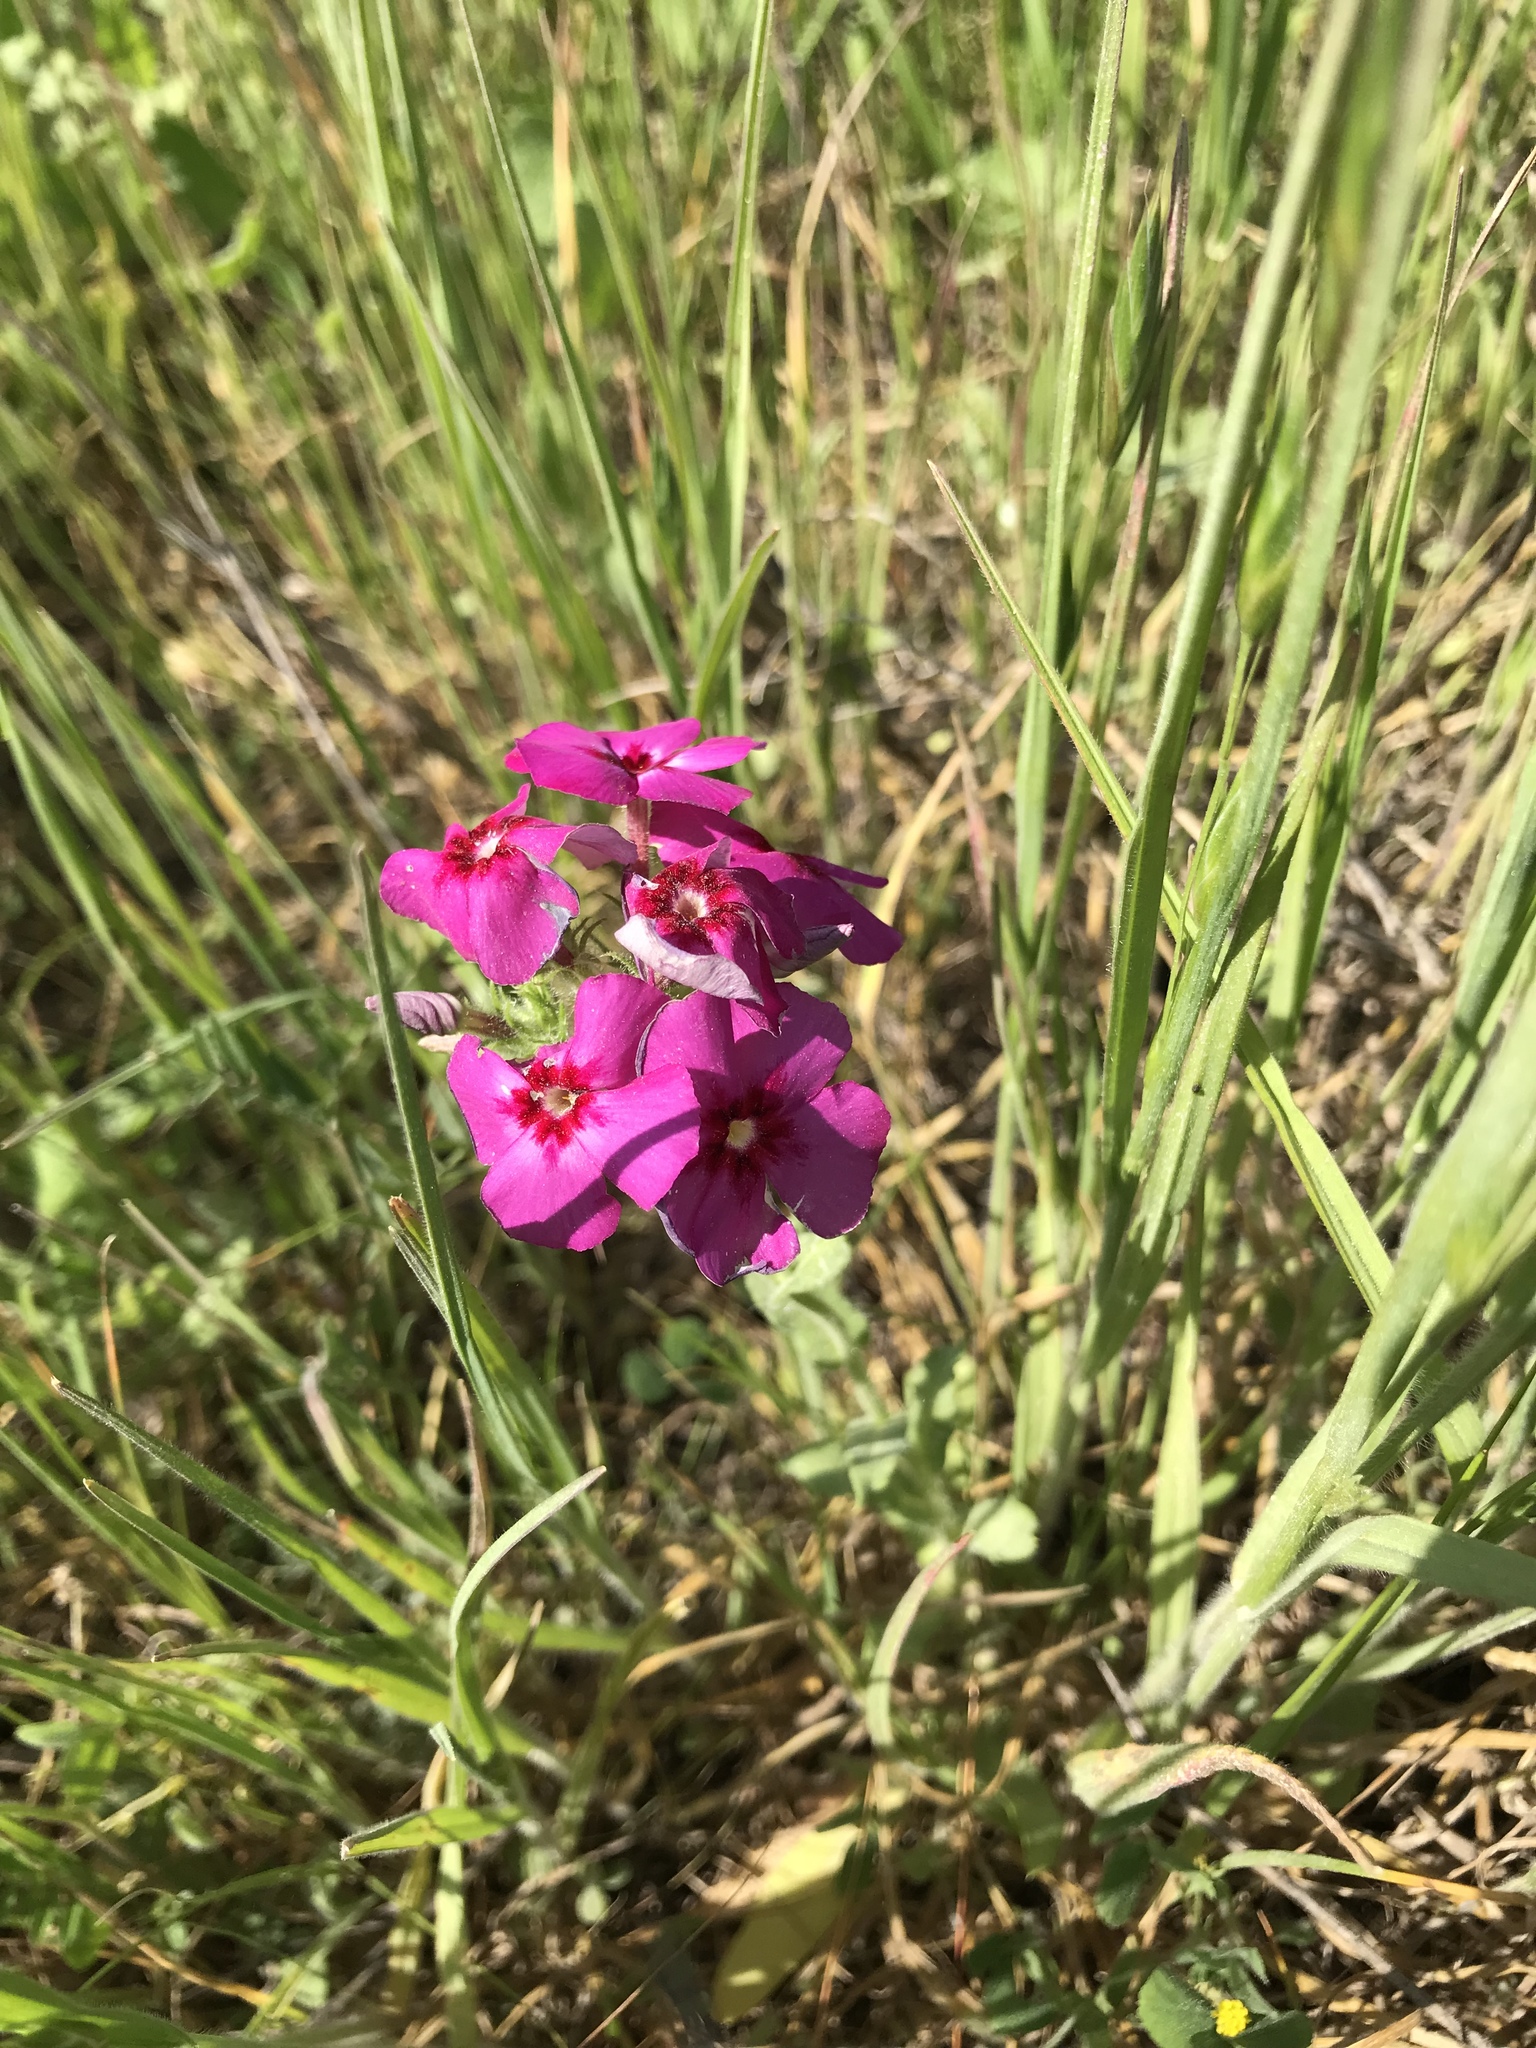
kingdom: Plantae
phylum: Tracheophyta
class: Magnoliopsida
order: Ericales
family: Polemoniaceae
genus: Phlox
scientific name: Phlox drummondii
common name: Drummond's phlox
